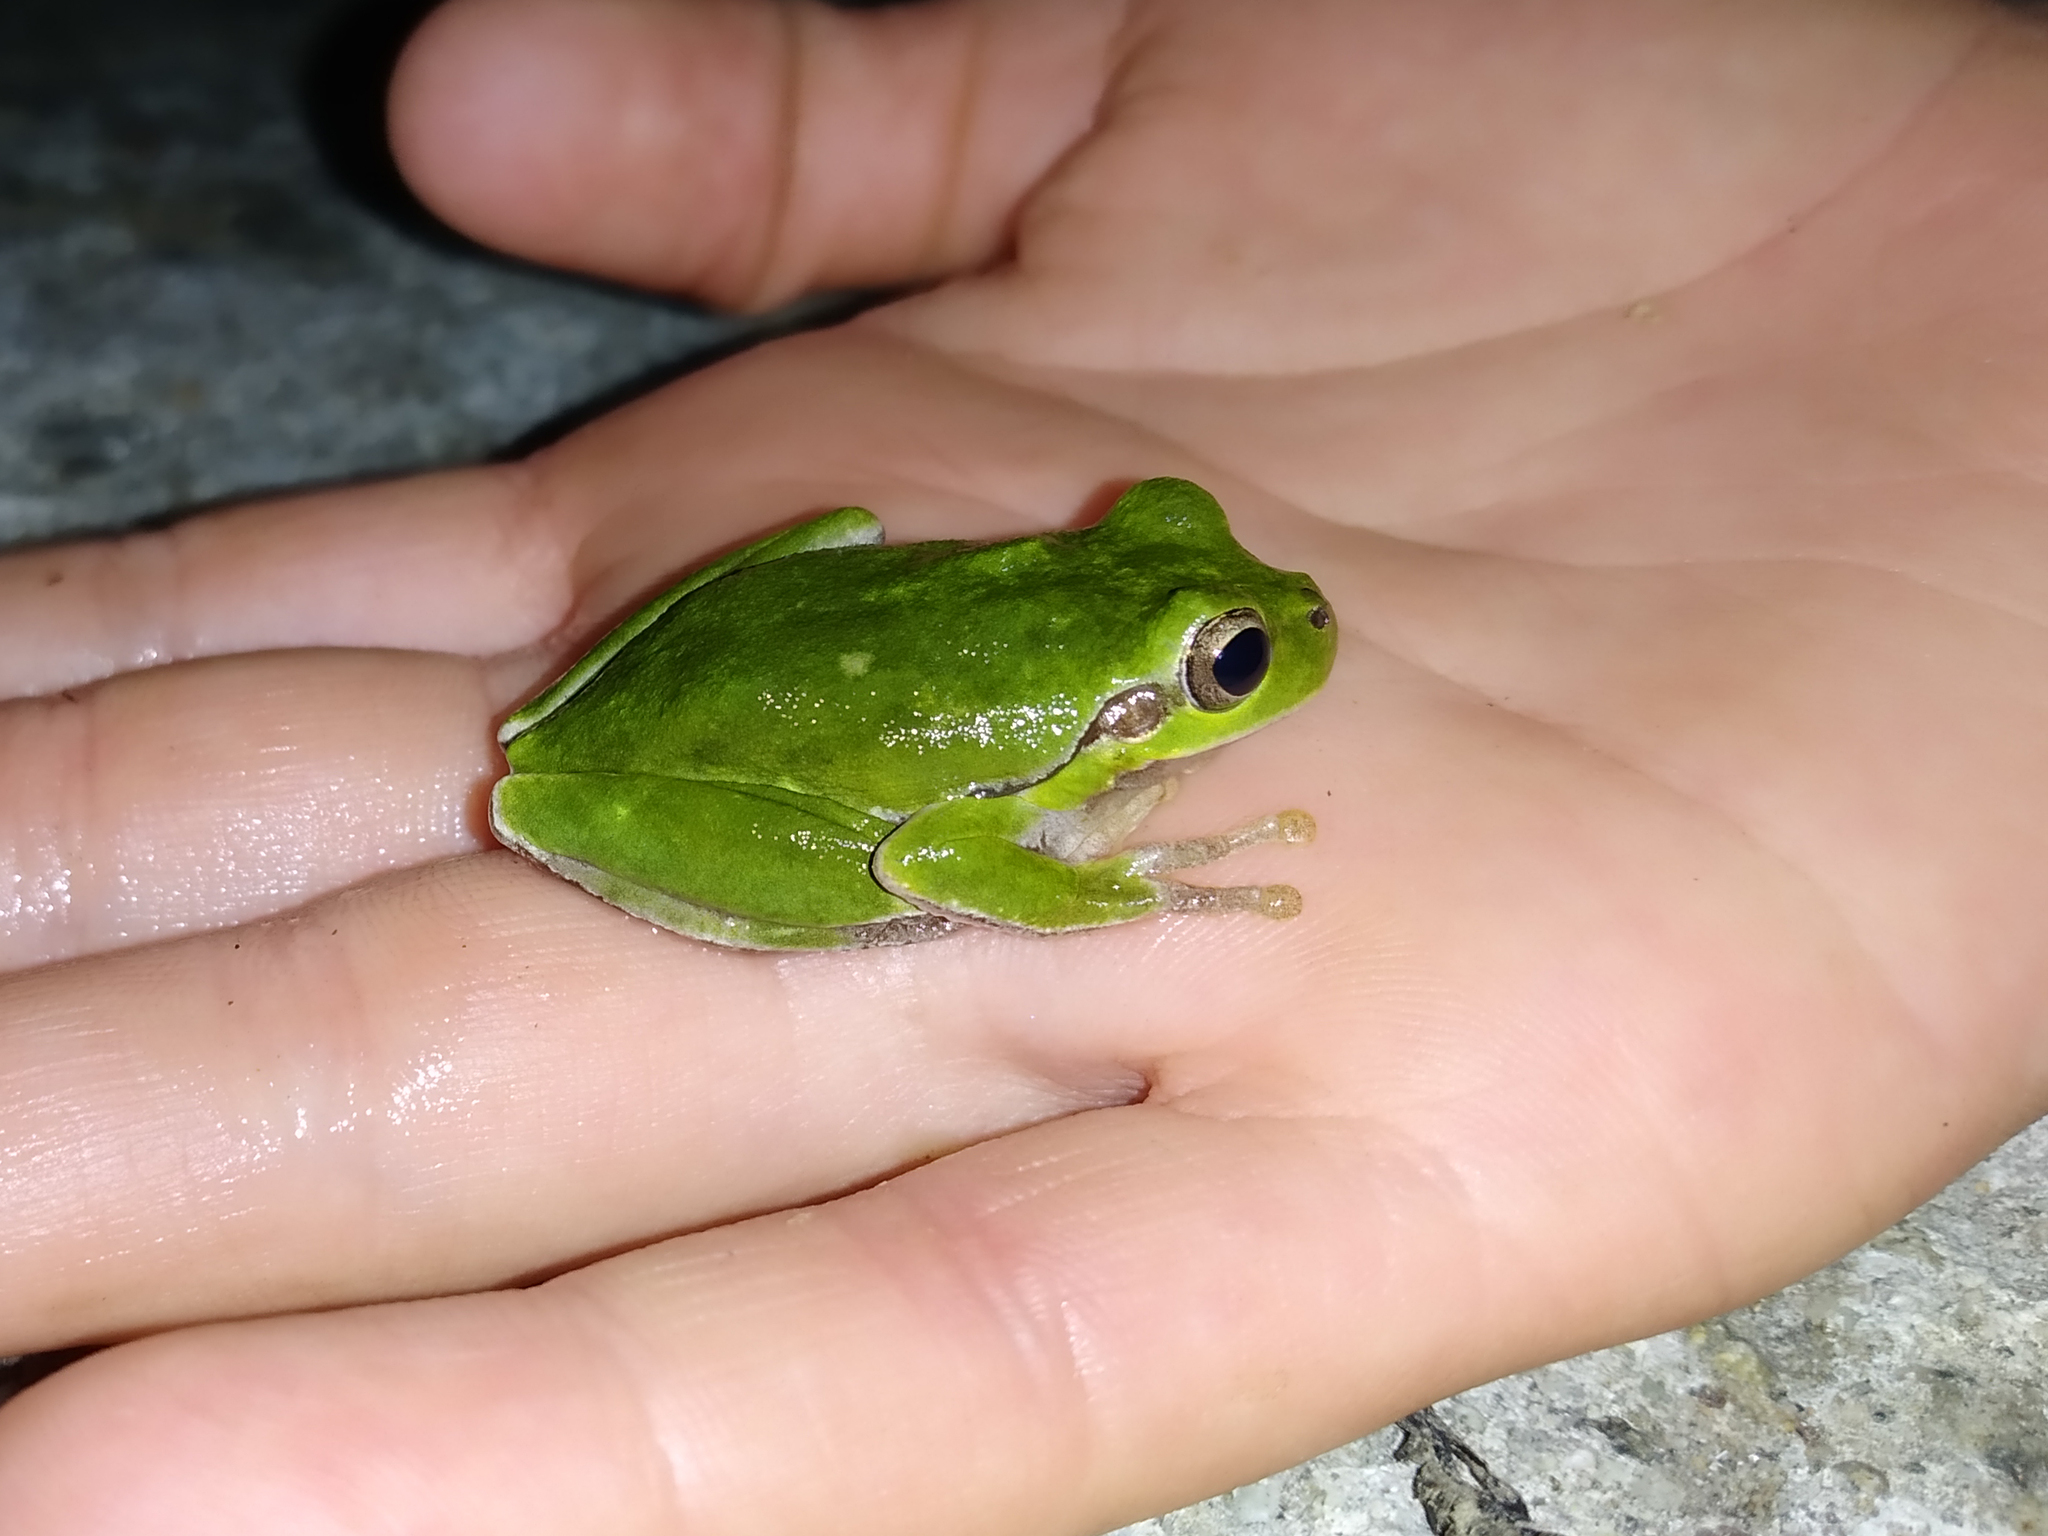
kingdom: Animalia
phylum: Chordata
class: Amphibia
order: Anura
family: Hylidae
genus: Hyla
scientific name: Hyla sarda
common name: Sardinian tree frog
